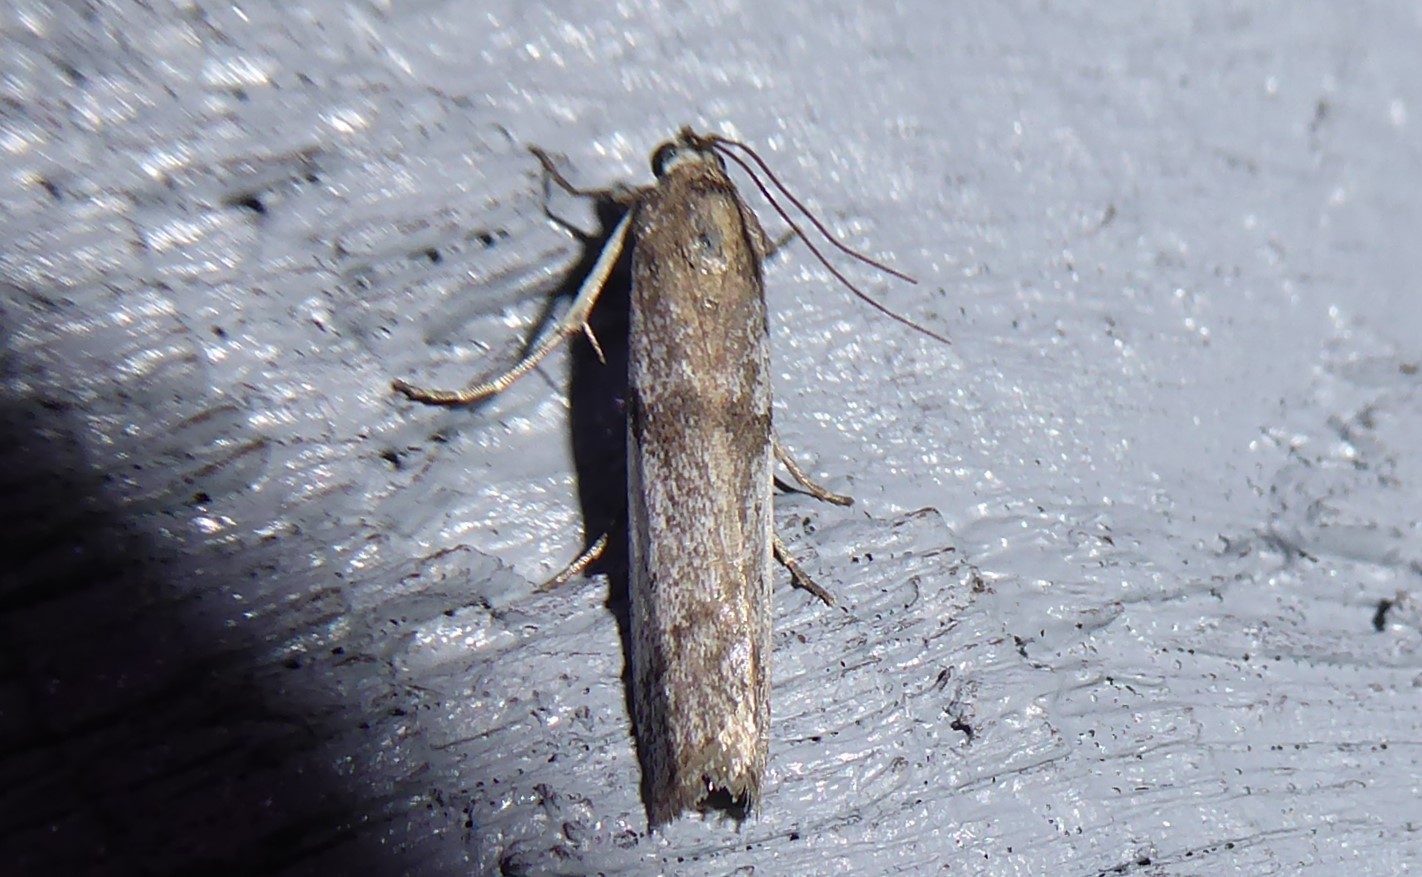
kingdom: Animalia
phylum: Arthropoda
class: Insecta
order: Lepidoptera
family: Pyralidae
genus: Patagoniodes
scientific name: Patagoniodes farinaria
